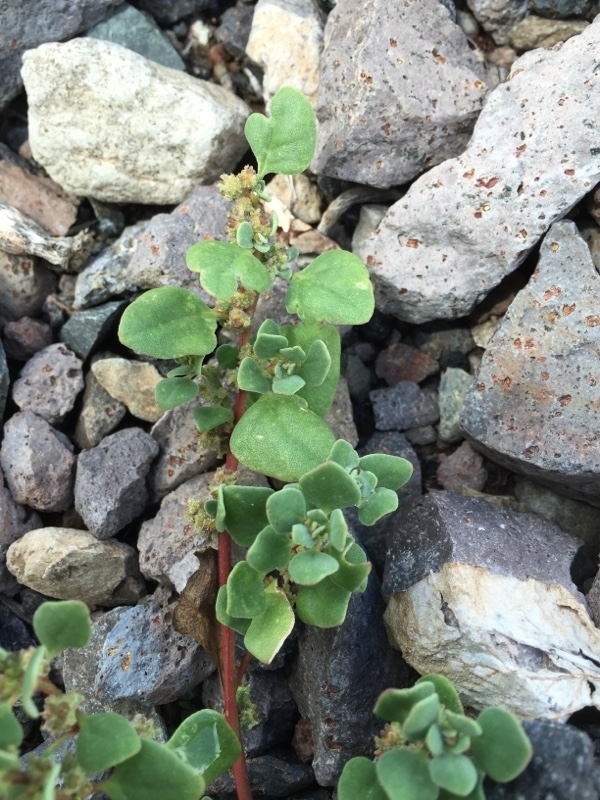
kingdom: Plantae
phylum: Tracheophyta
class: Magnoliopsida
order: Caryophyllales
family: Aizoaceae
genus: Tetragonia
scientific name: Tetragonia echinata
